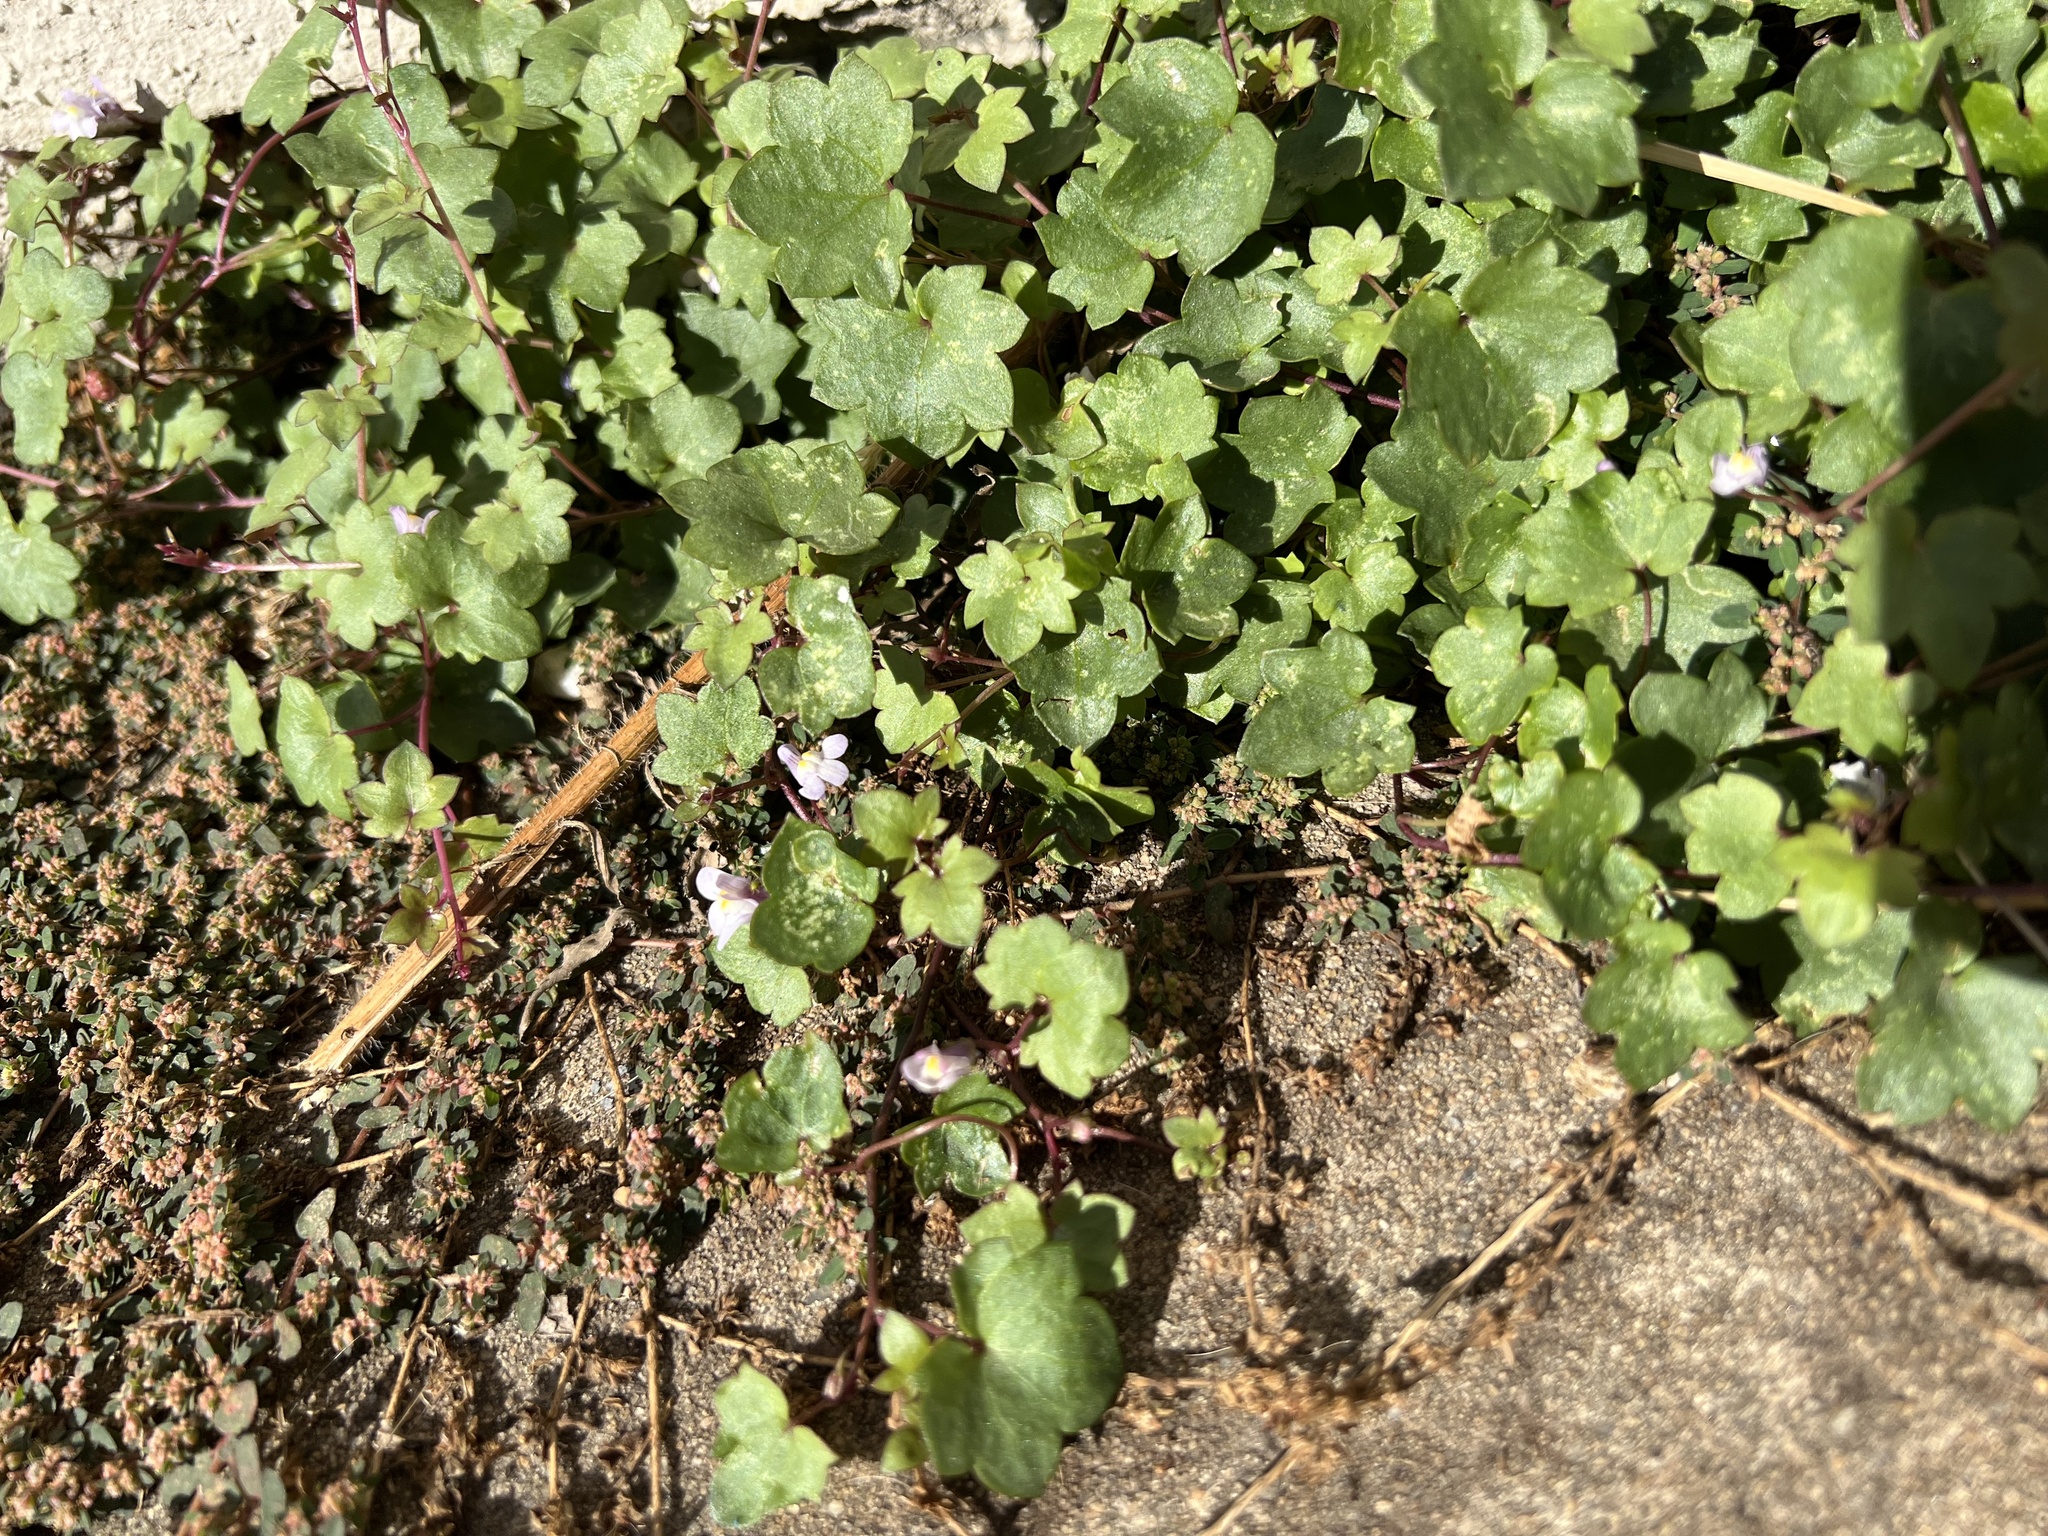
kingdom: Plantae
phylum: Tracheophyta
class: Magnoliopsida
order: Lamiales
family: Plantaginaceae
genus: Cymbalaria
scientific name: Cymbalaria muralis
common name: Ivy-leaved toadflax
